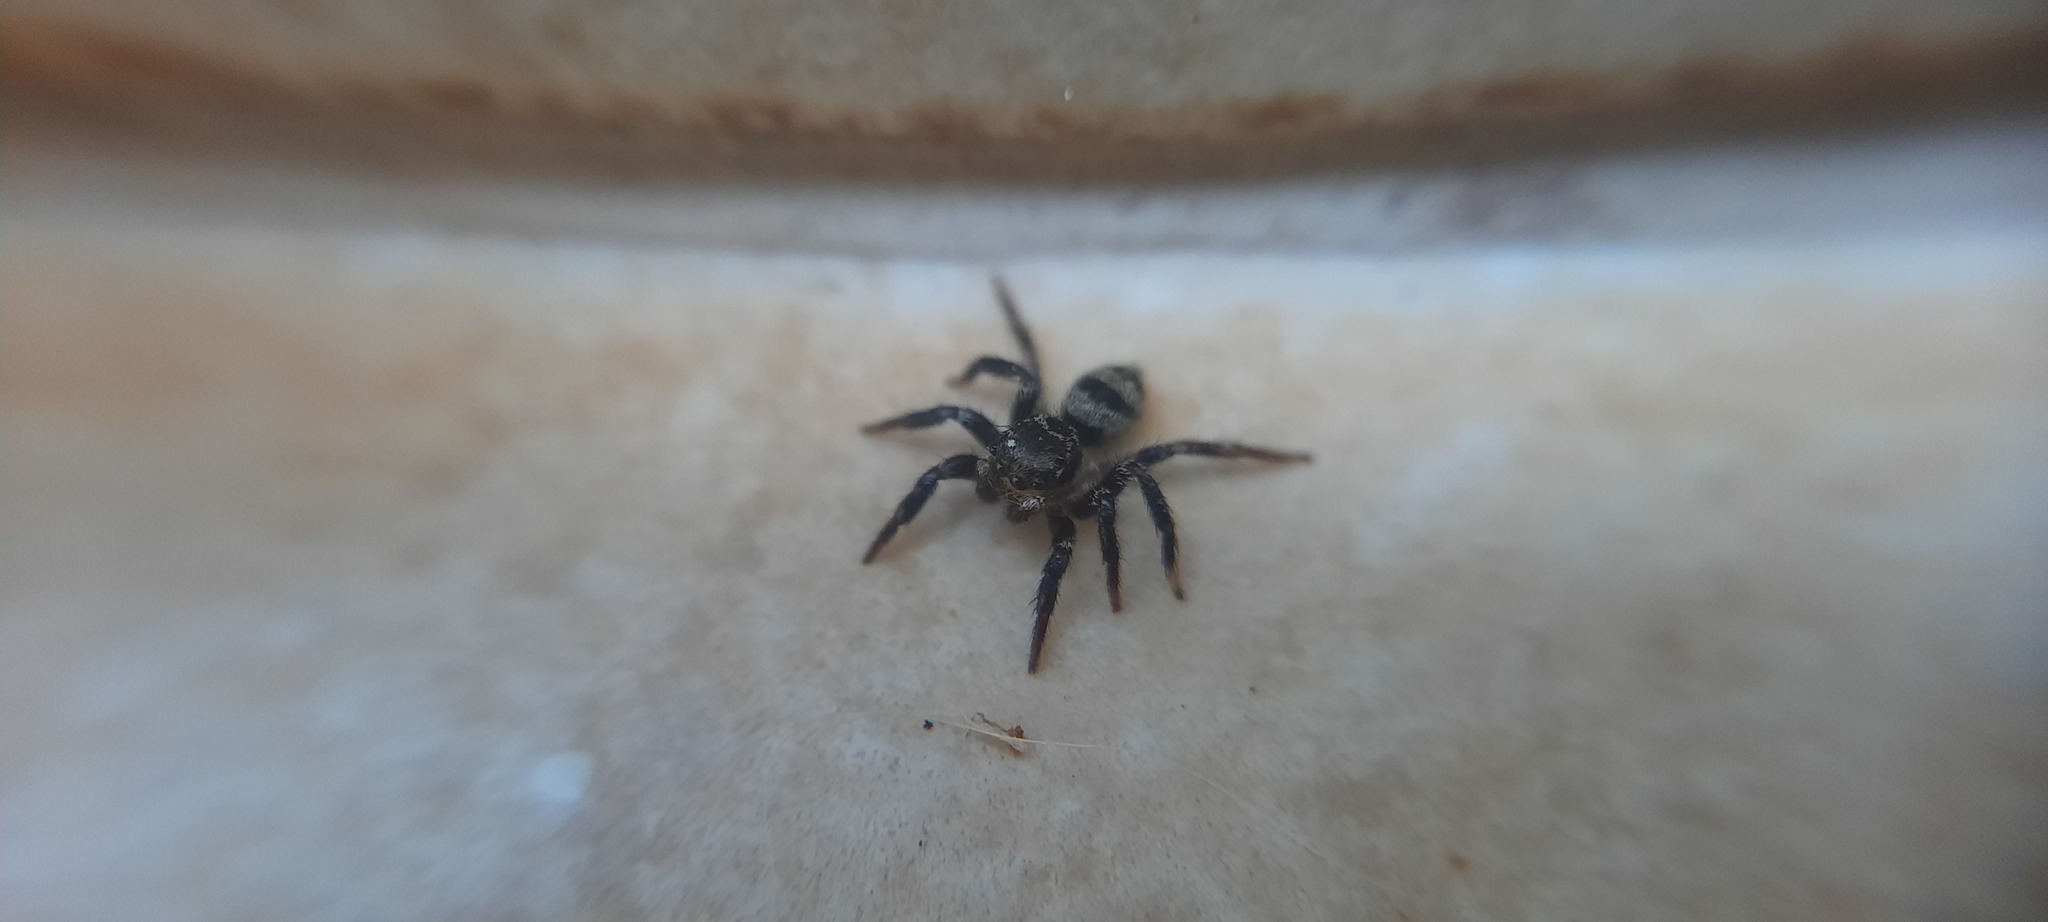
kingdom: Animalia
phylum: Arthropoda
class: Arachnida
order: Araneae
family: Salticidae
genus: Corythalia
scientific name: Corythalia conferta
